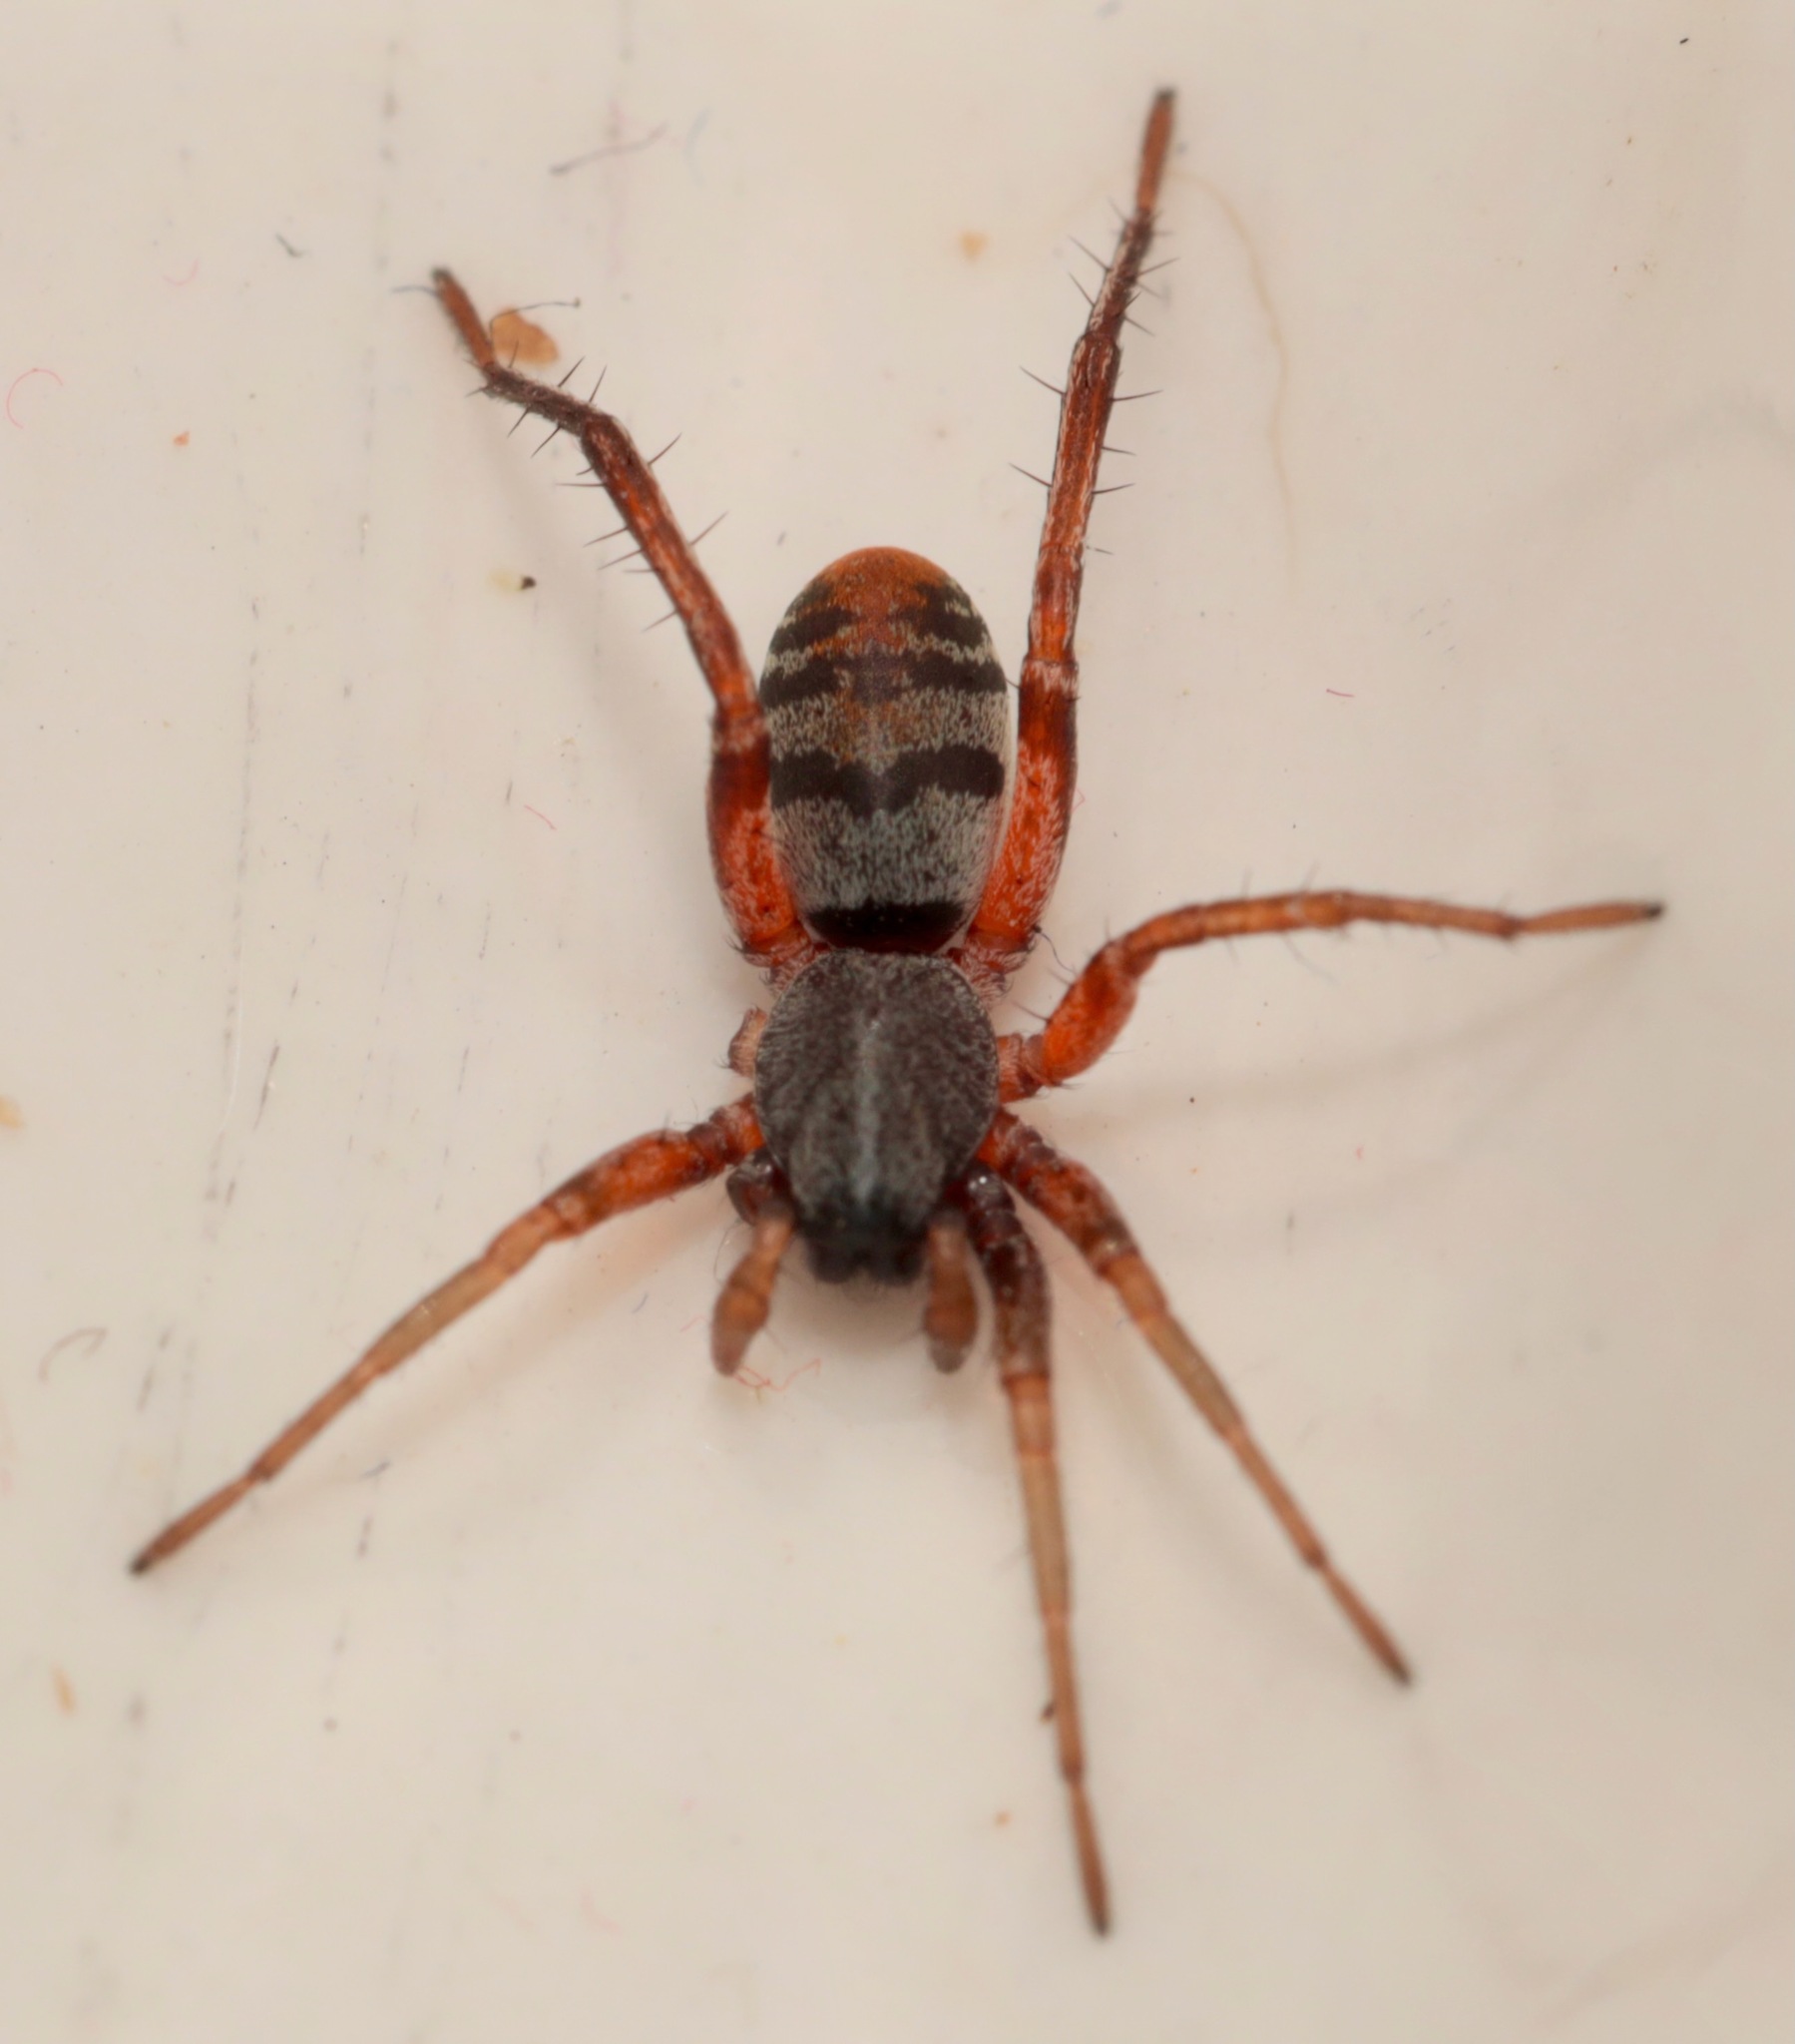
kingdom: Animalia
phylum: Arthropoda
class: Arachnida
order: Araneae
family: Corinnidae
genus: Castianeira
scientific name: Castianeira descripta
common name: Red-spotted ant-mimic sac spider
